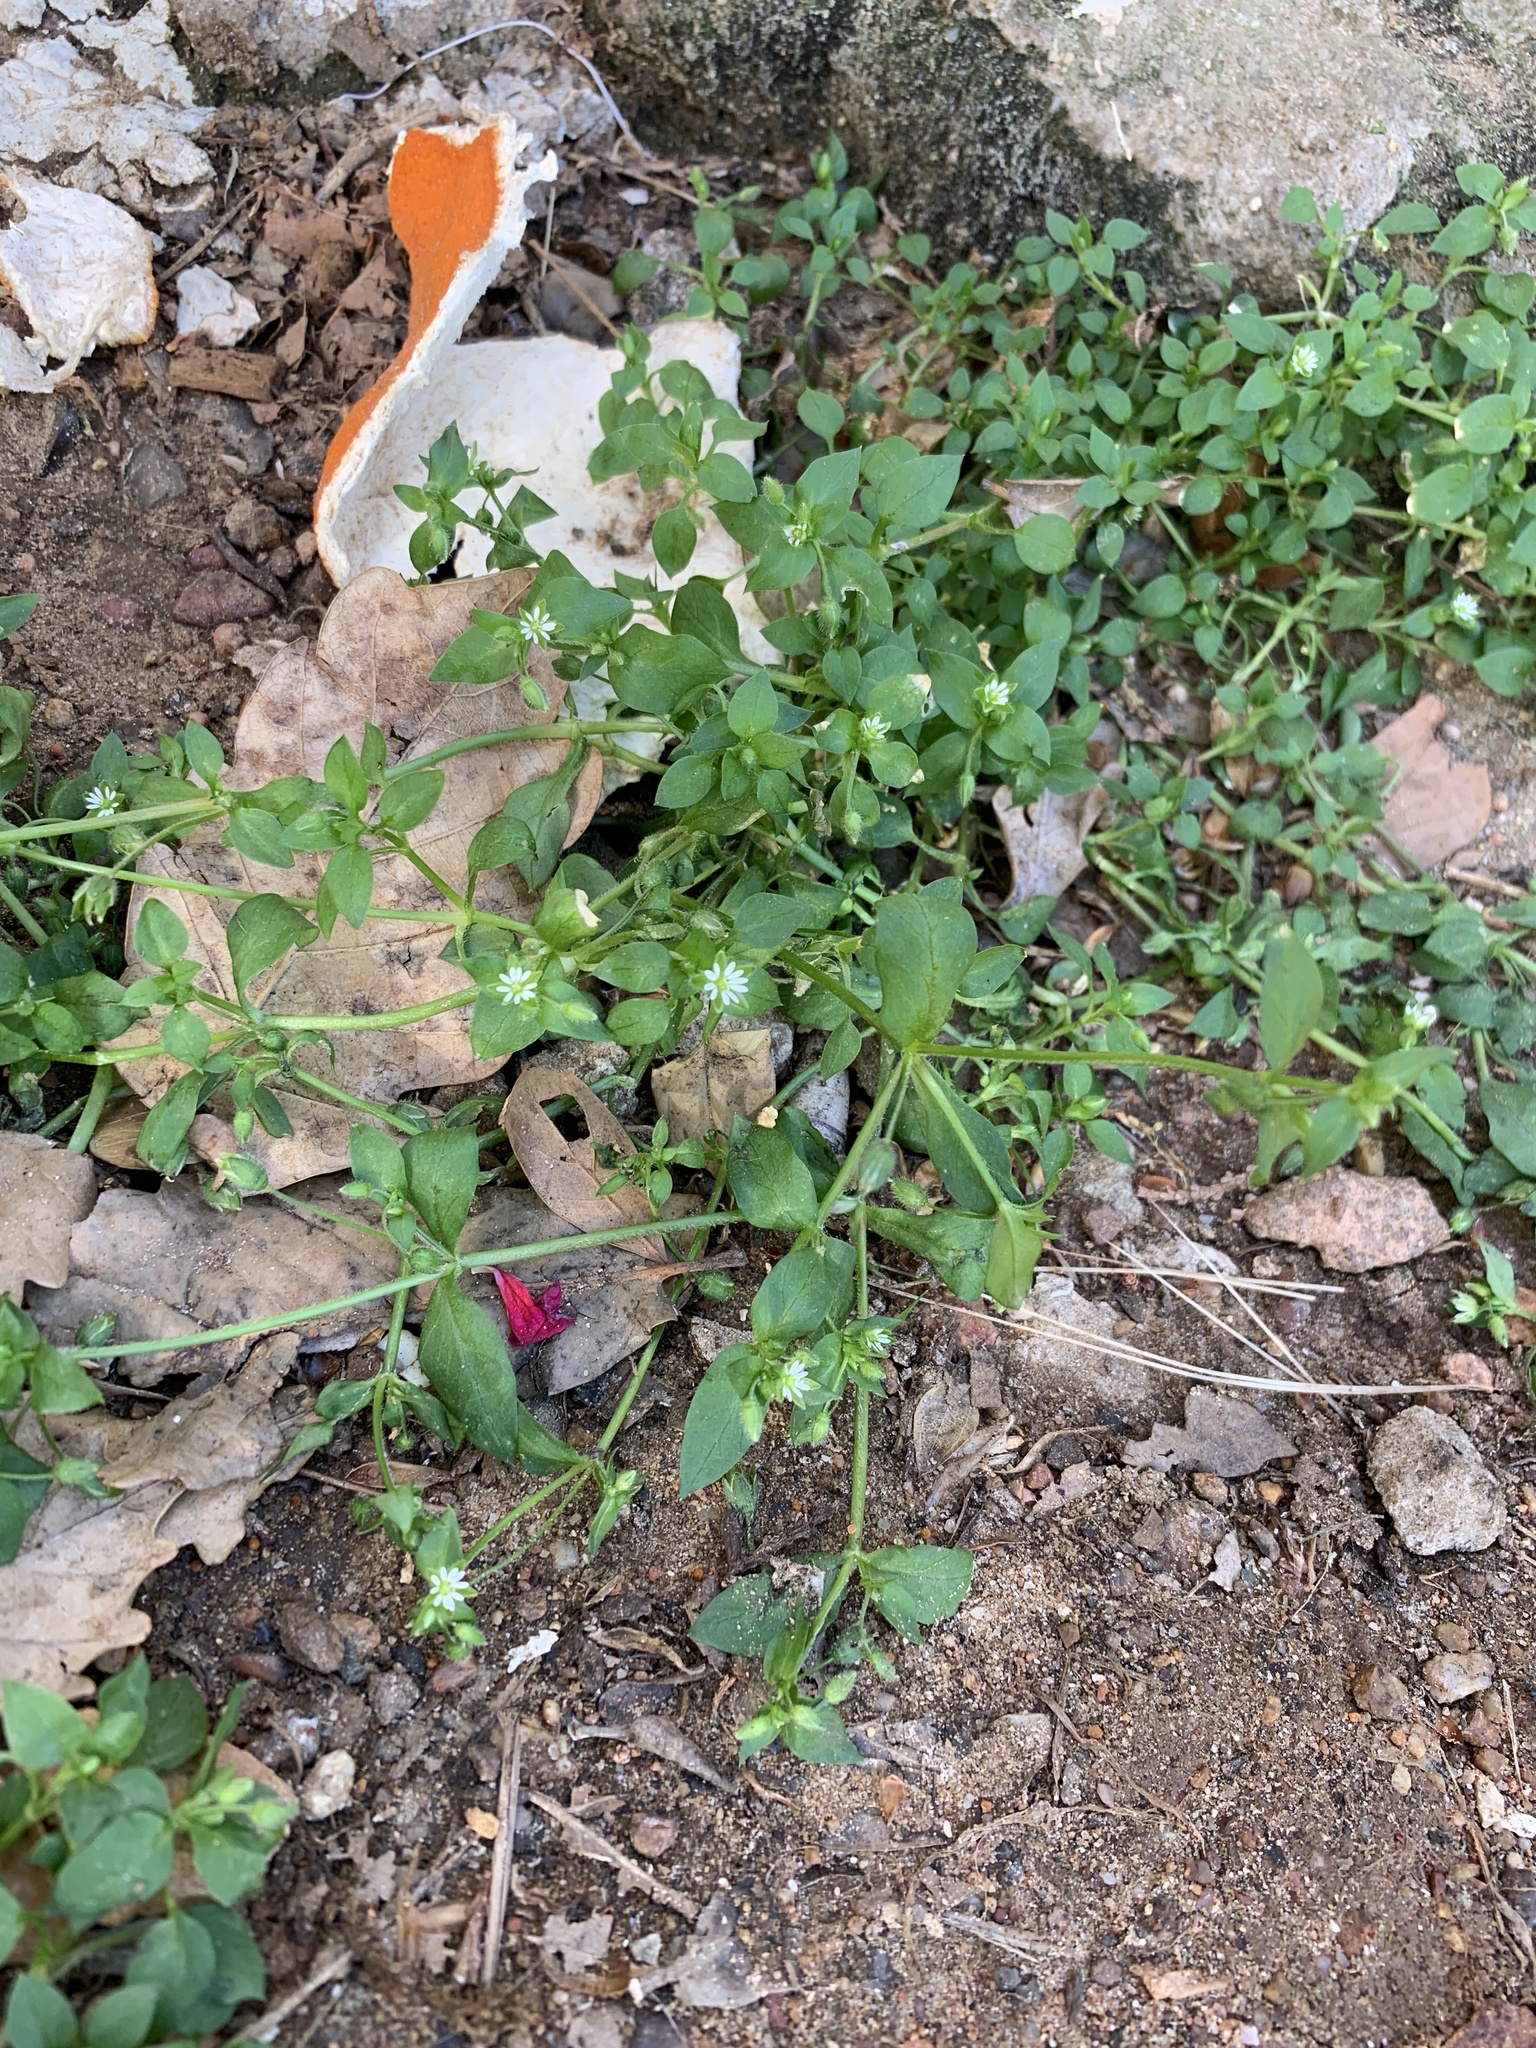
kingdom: Plantae
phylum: Tracheophyta
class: Magnoliopsida
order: Caryophyllales
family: Caryophyllaceae
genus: Stellaria
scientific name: Stellaria media
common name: Common chickweed
